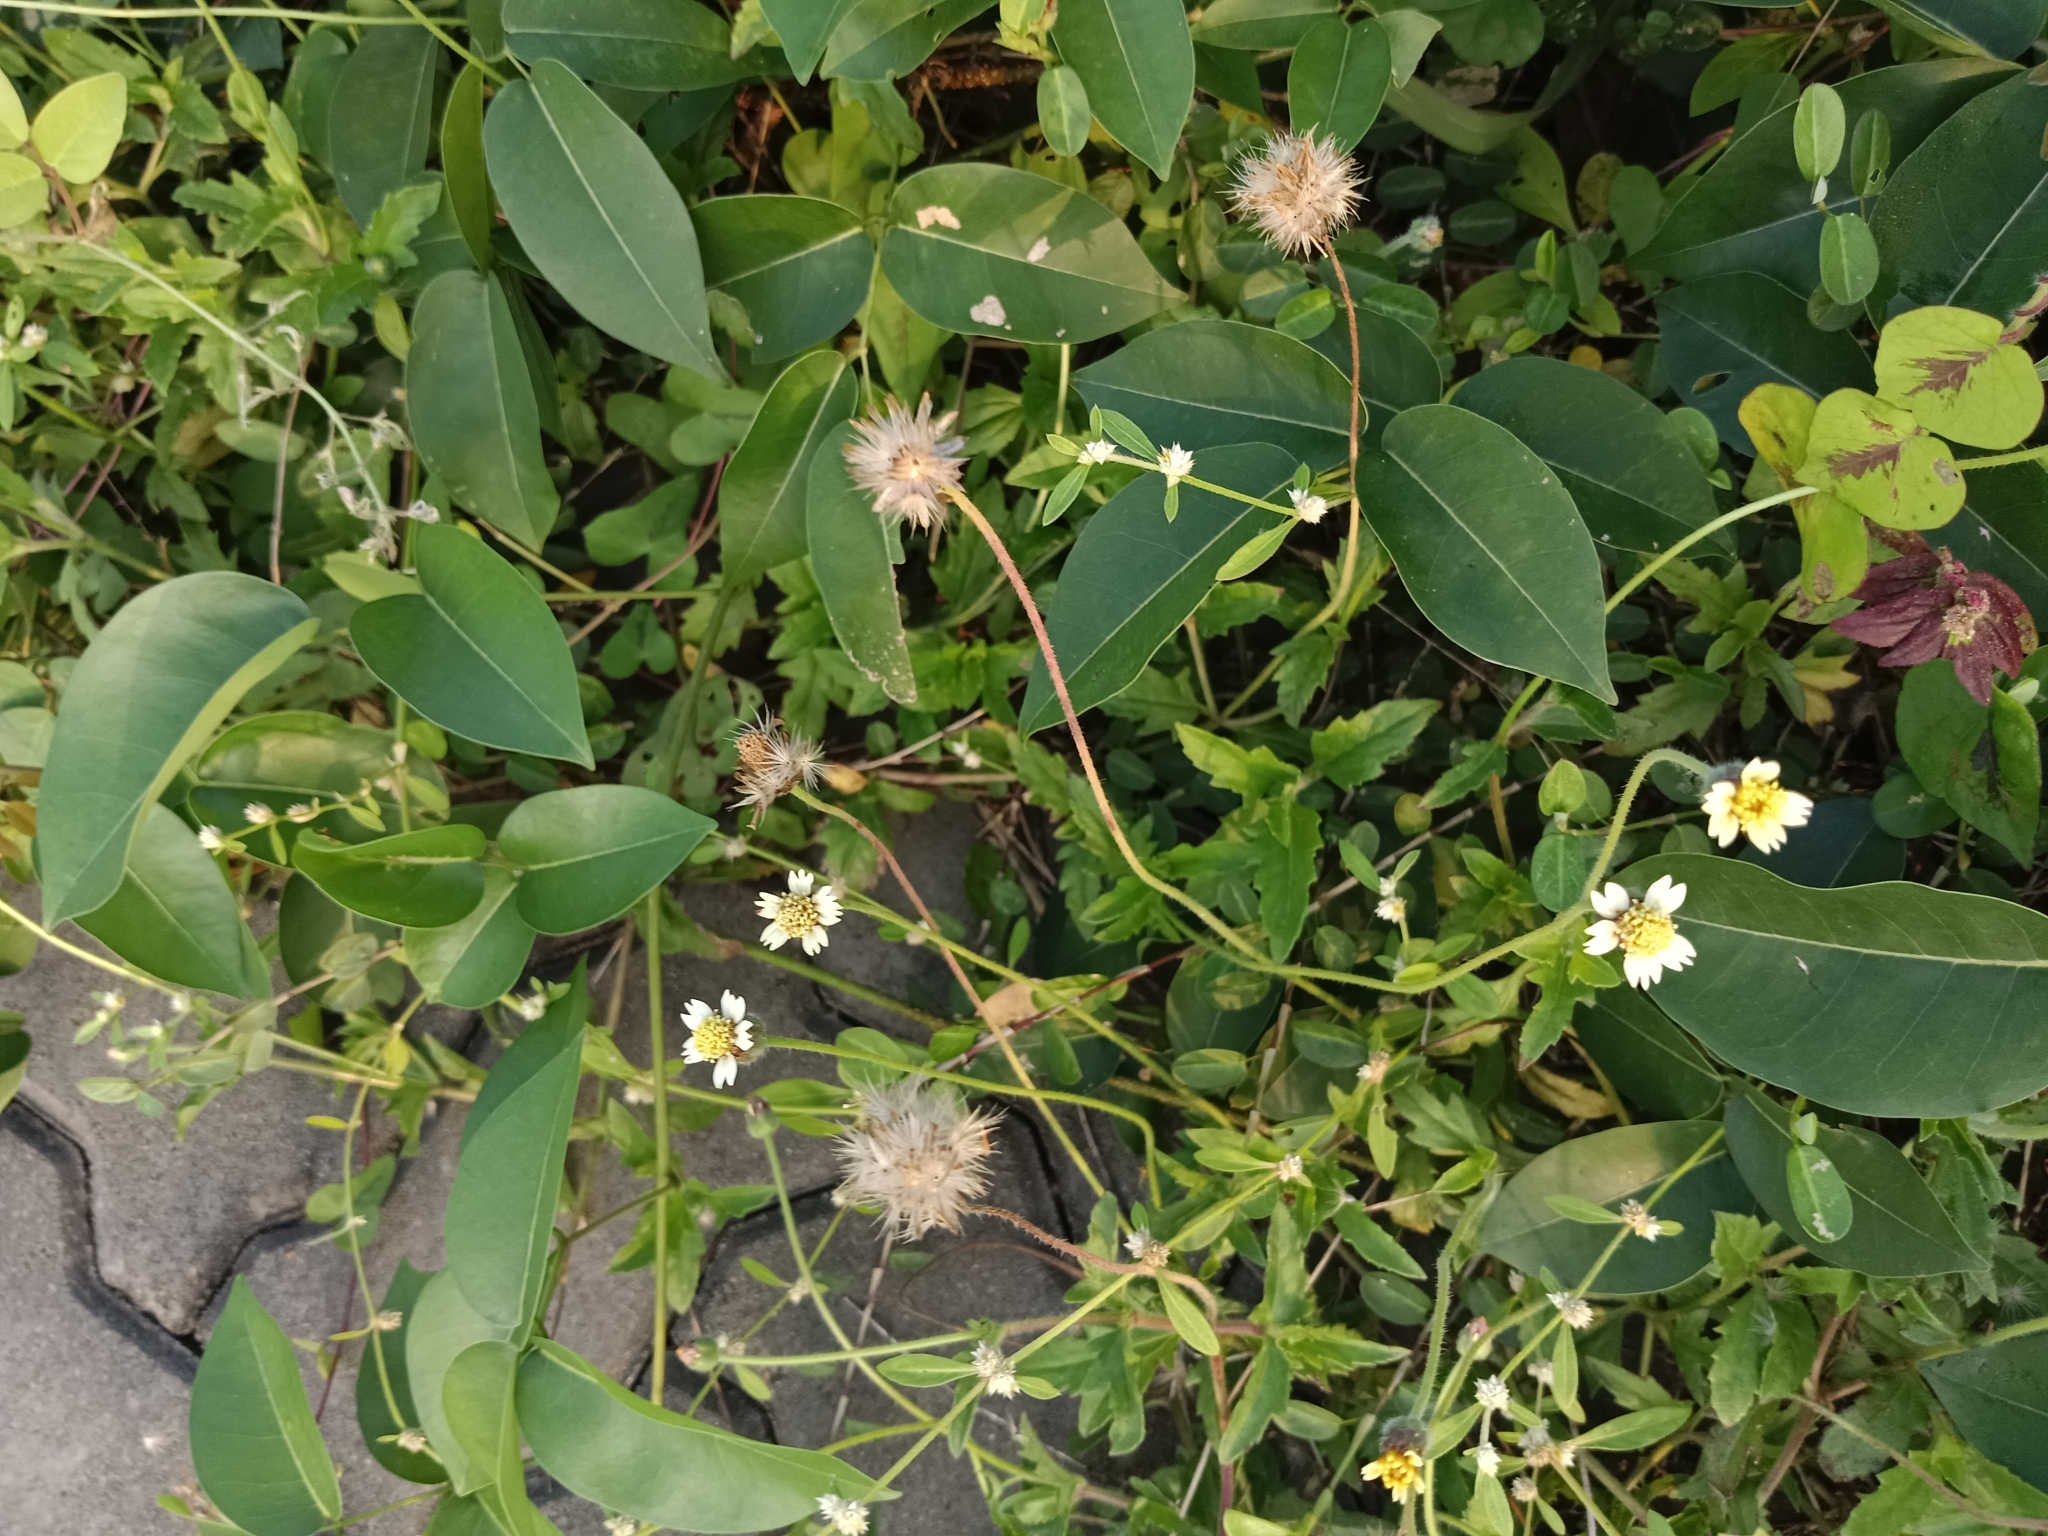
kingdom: Plantae
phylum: Tracheophyta
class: Magnoliopsida
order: Asterales
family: Asteraceae
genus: Tridax
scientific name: Tridax procumbens
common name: Coatbuttons
